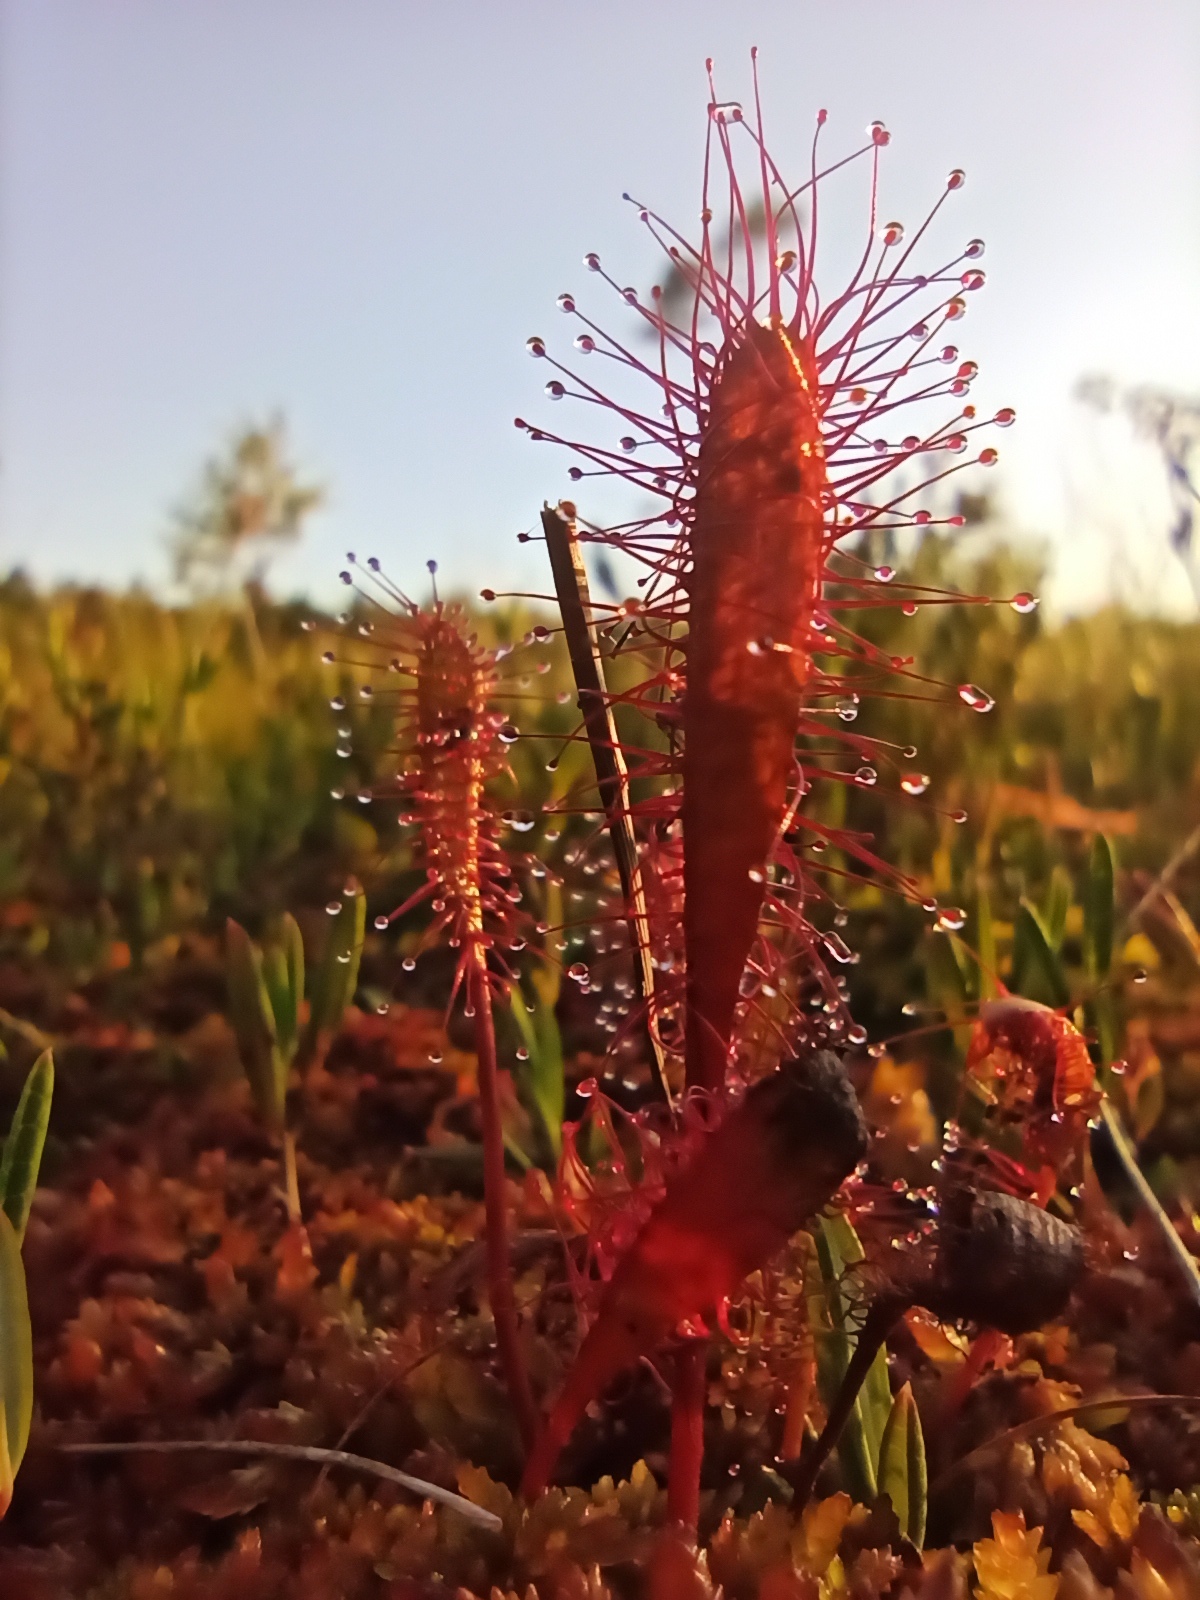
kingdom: Plantae
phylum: Tracheophyta
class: Magnoliopsida
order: Caryophyllales
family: Droseraceae
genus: Drosera
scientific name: Drosera anglica
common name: Great sundew
